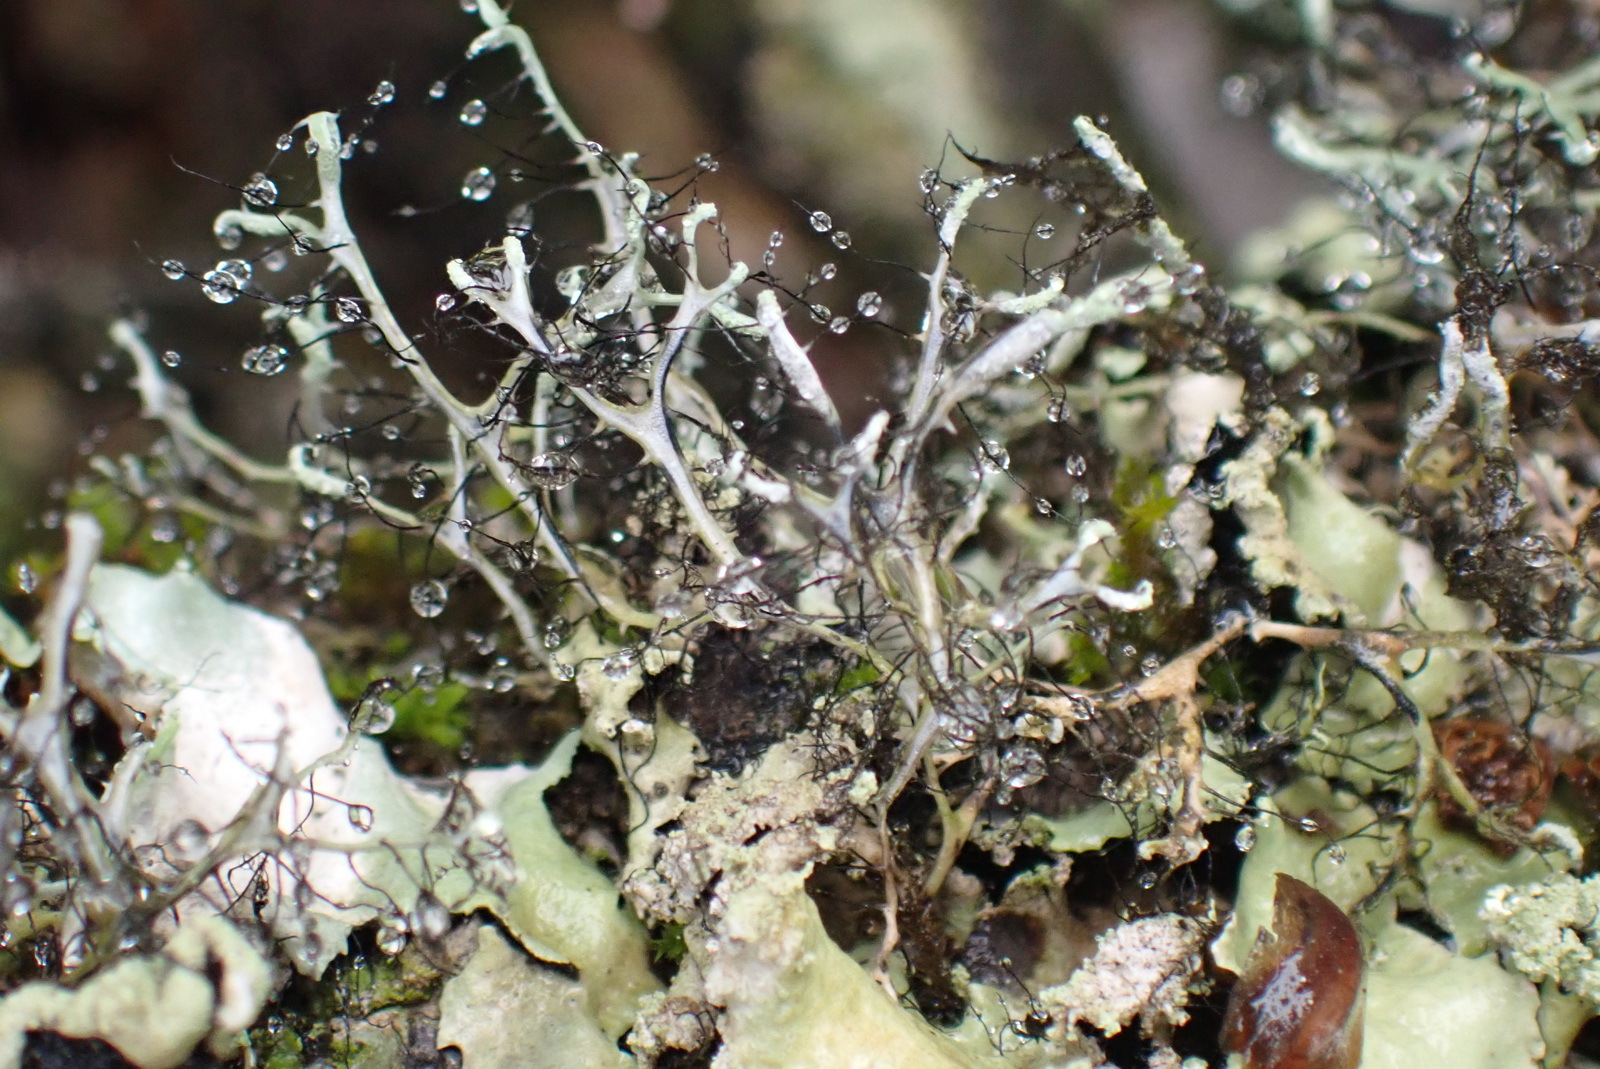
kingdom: Fungi
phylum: Ascomycota
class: Lecanoromycetes
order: Caliciales
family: Physciaceae
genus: Leucodermia
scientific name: Leucodermia leucomelos
